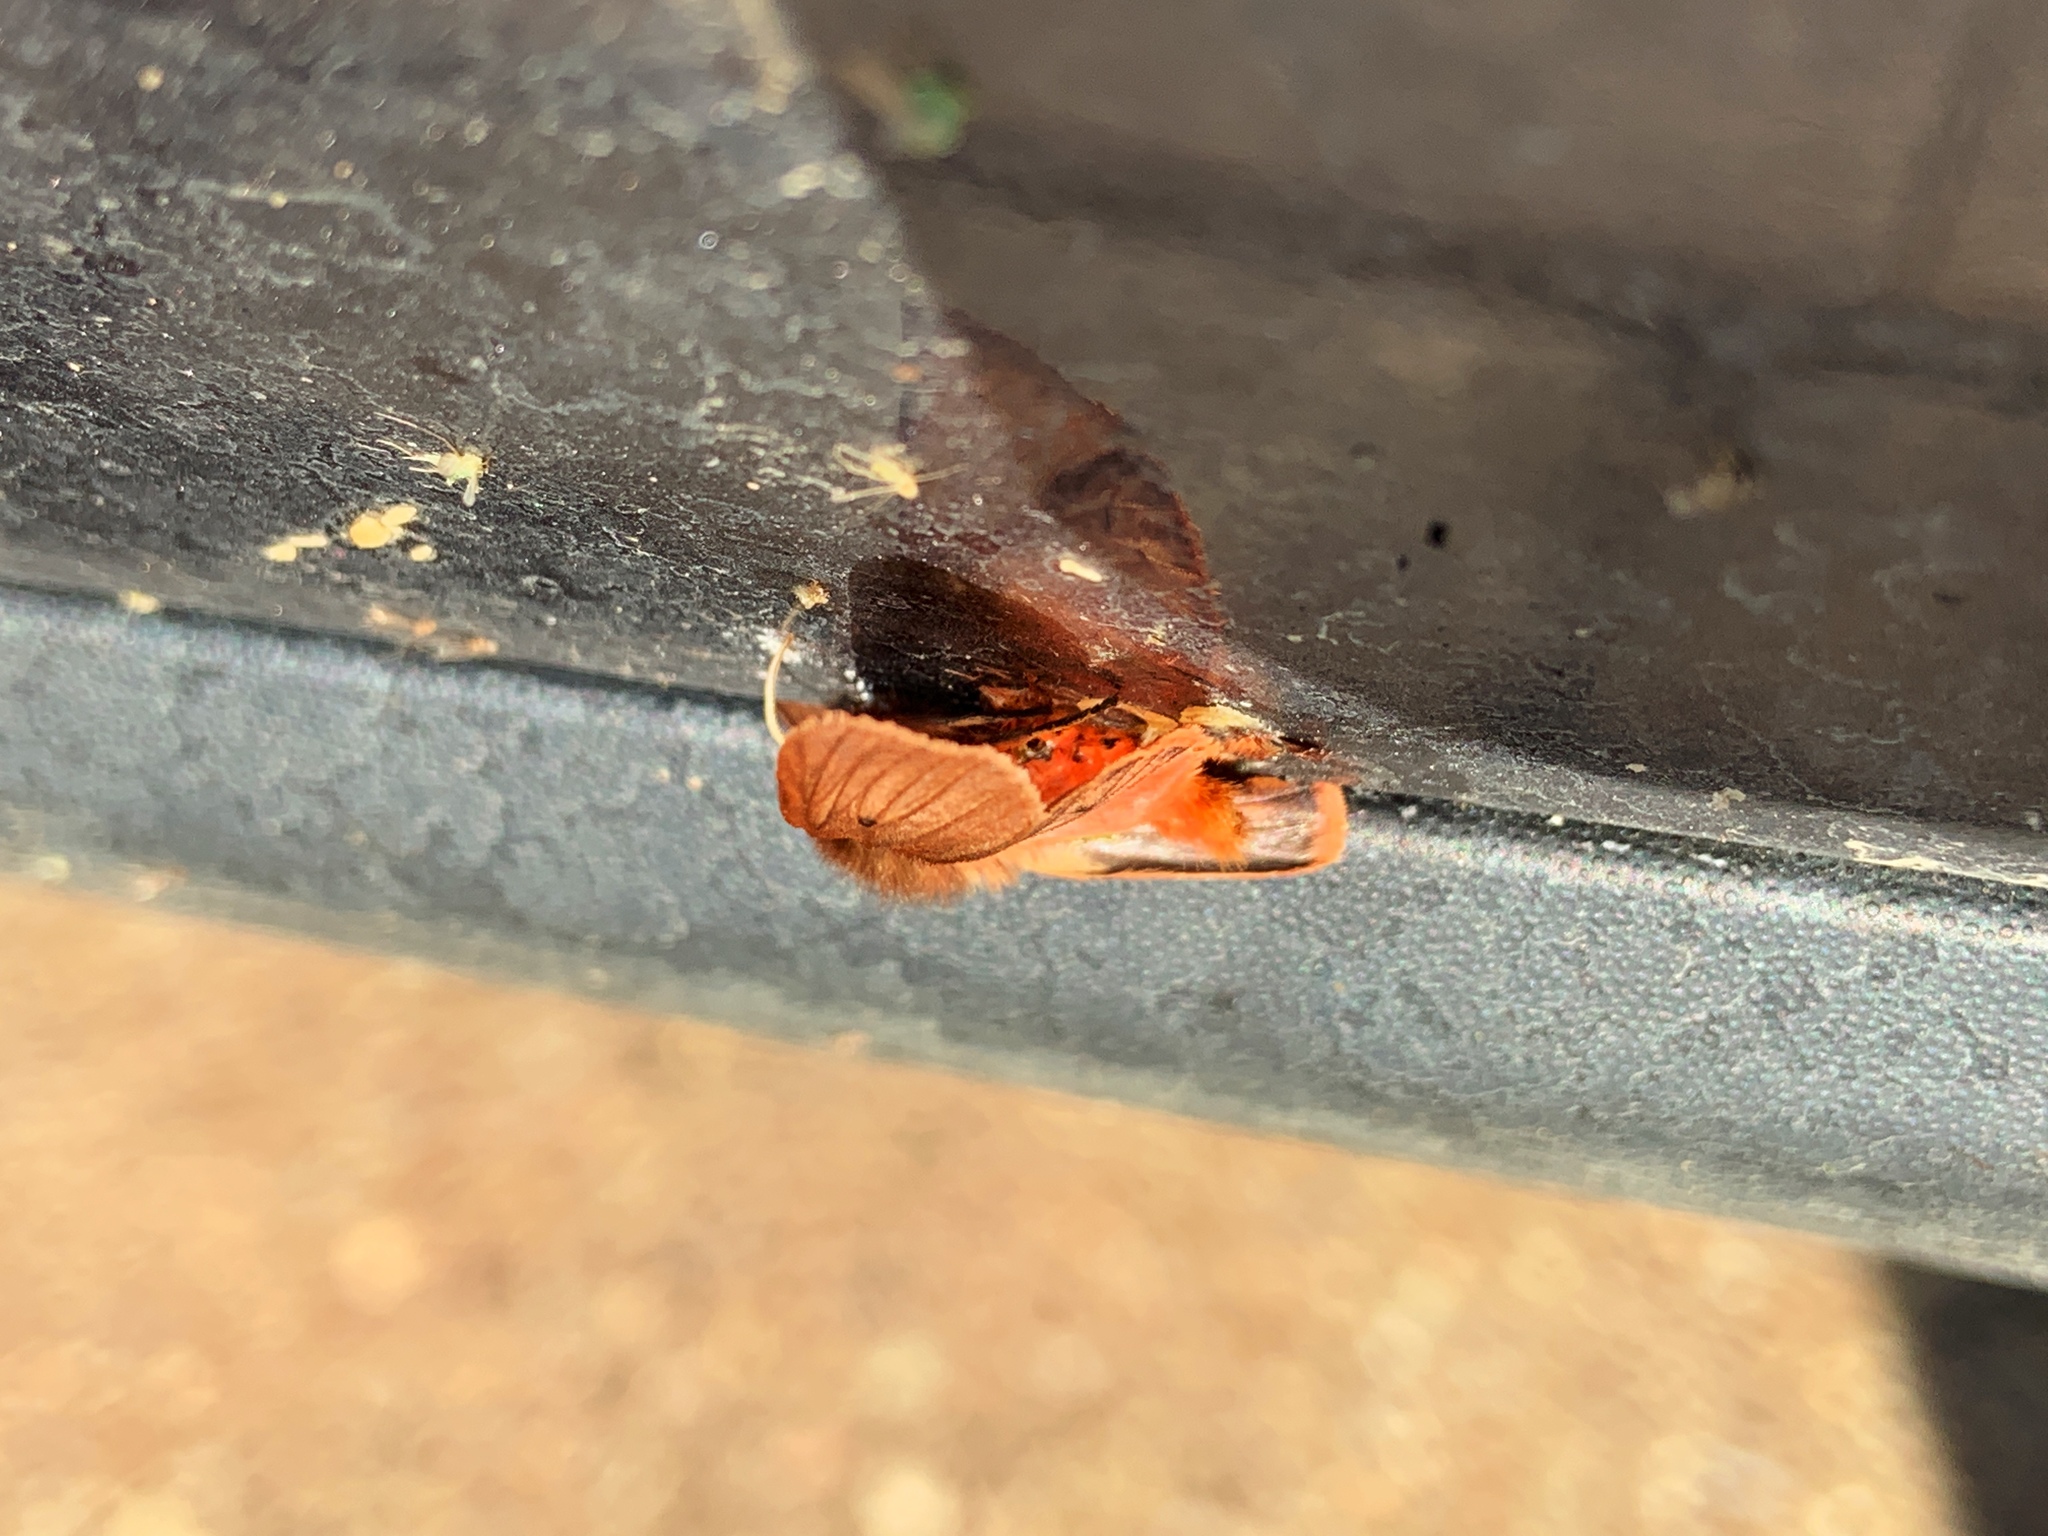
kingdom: Animalia
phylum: Arthropoda
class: Insecta
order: Lepidoptera
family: Erebidae
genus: Phragmatobia
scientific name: Phragmatobia fuliginosa
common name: Ruby tiger
